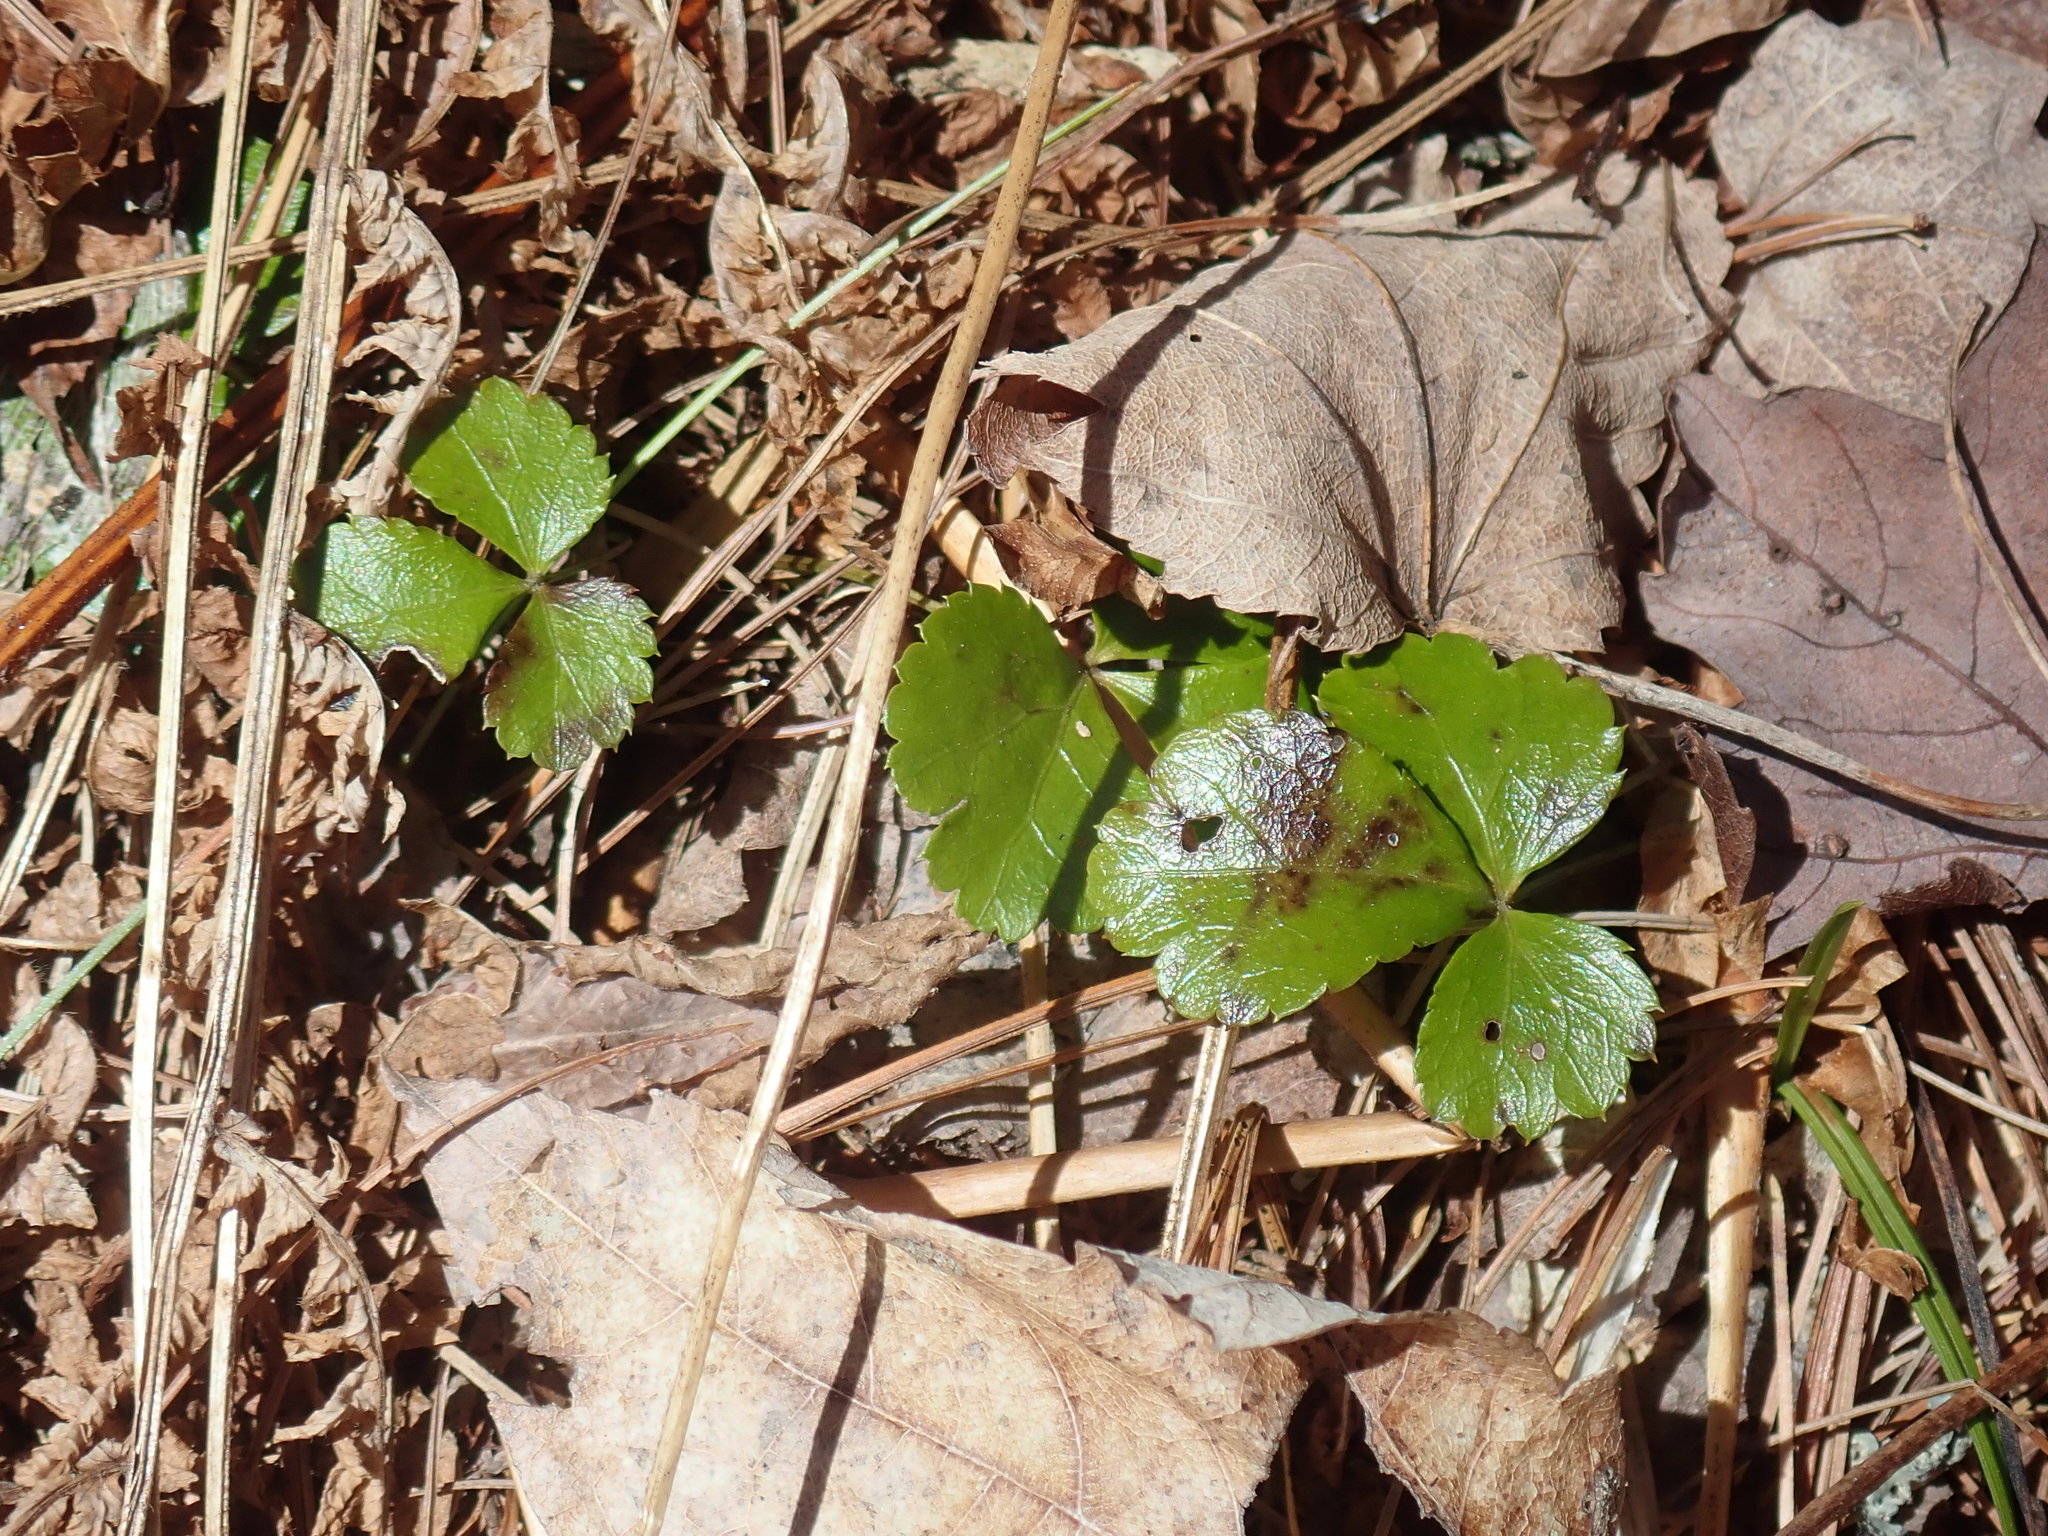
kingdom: Plantae
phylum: Tracheophyta
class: Magnoliopsida
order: Ranunculales
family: Ranunculaceae
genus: Coptis
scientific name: Coptis trifolia
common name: Canker-root
